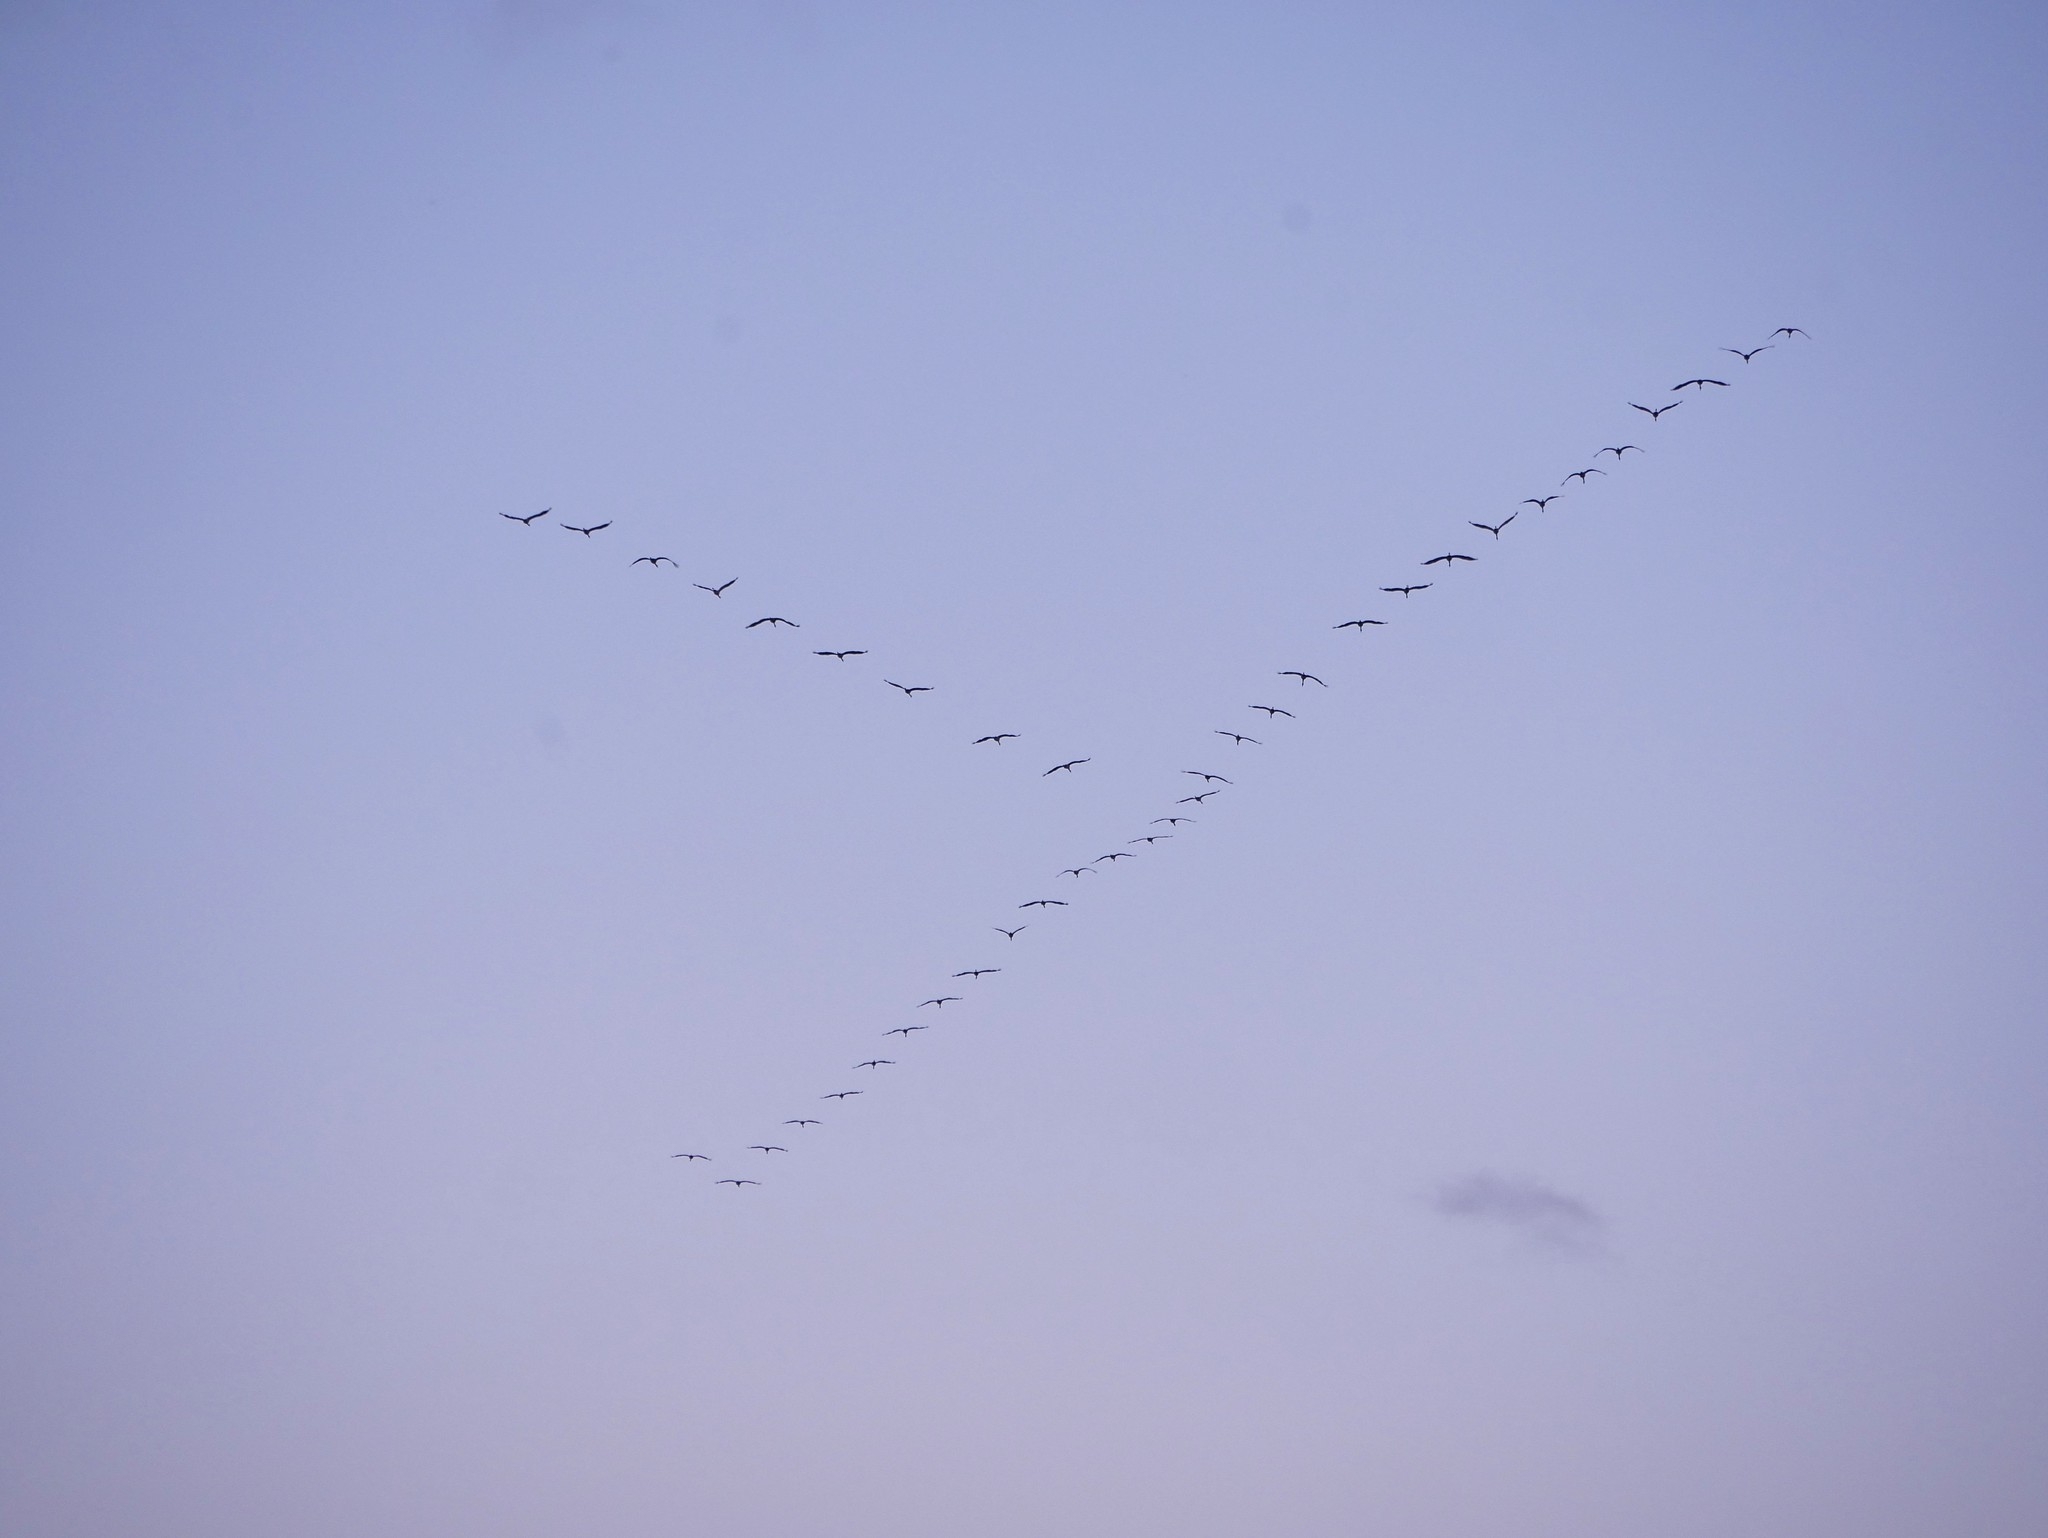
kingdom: Animalia
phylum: Chordata
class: Aves
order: Gruiformes
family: Gruidae
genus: Grus
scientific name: Grus grus
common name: Common crane
